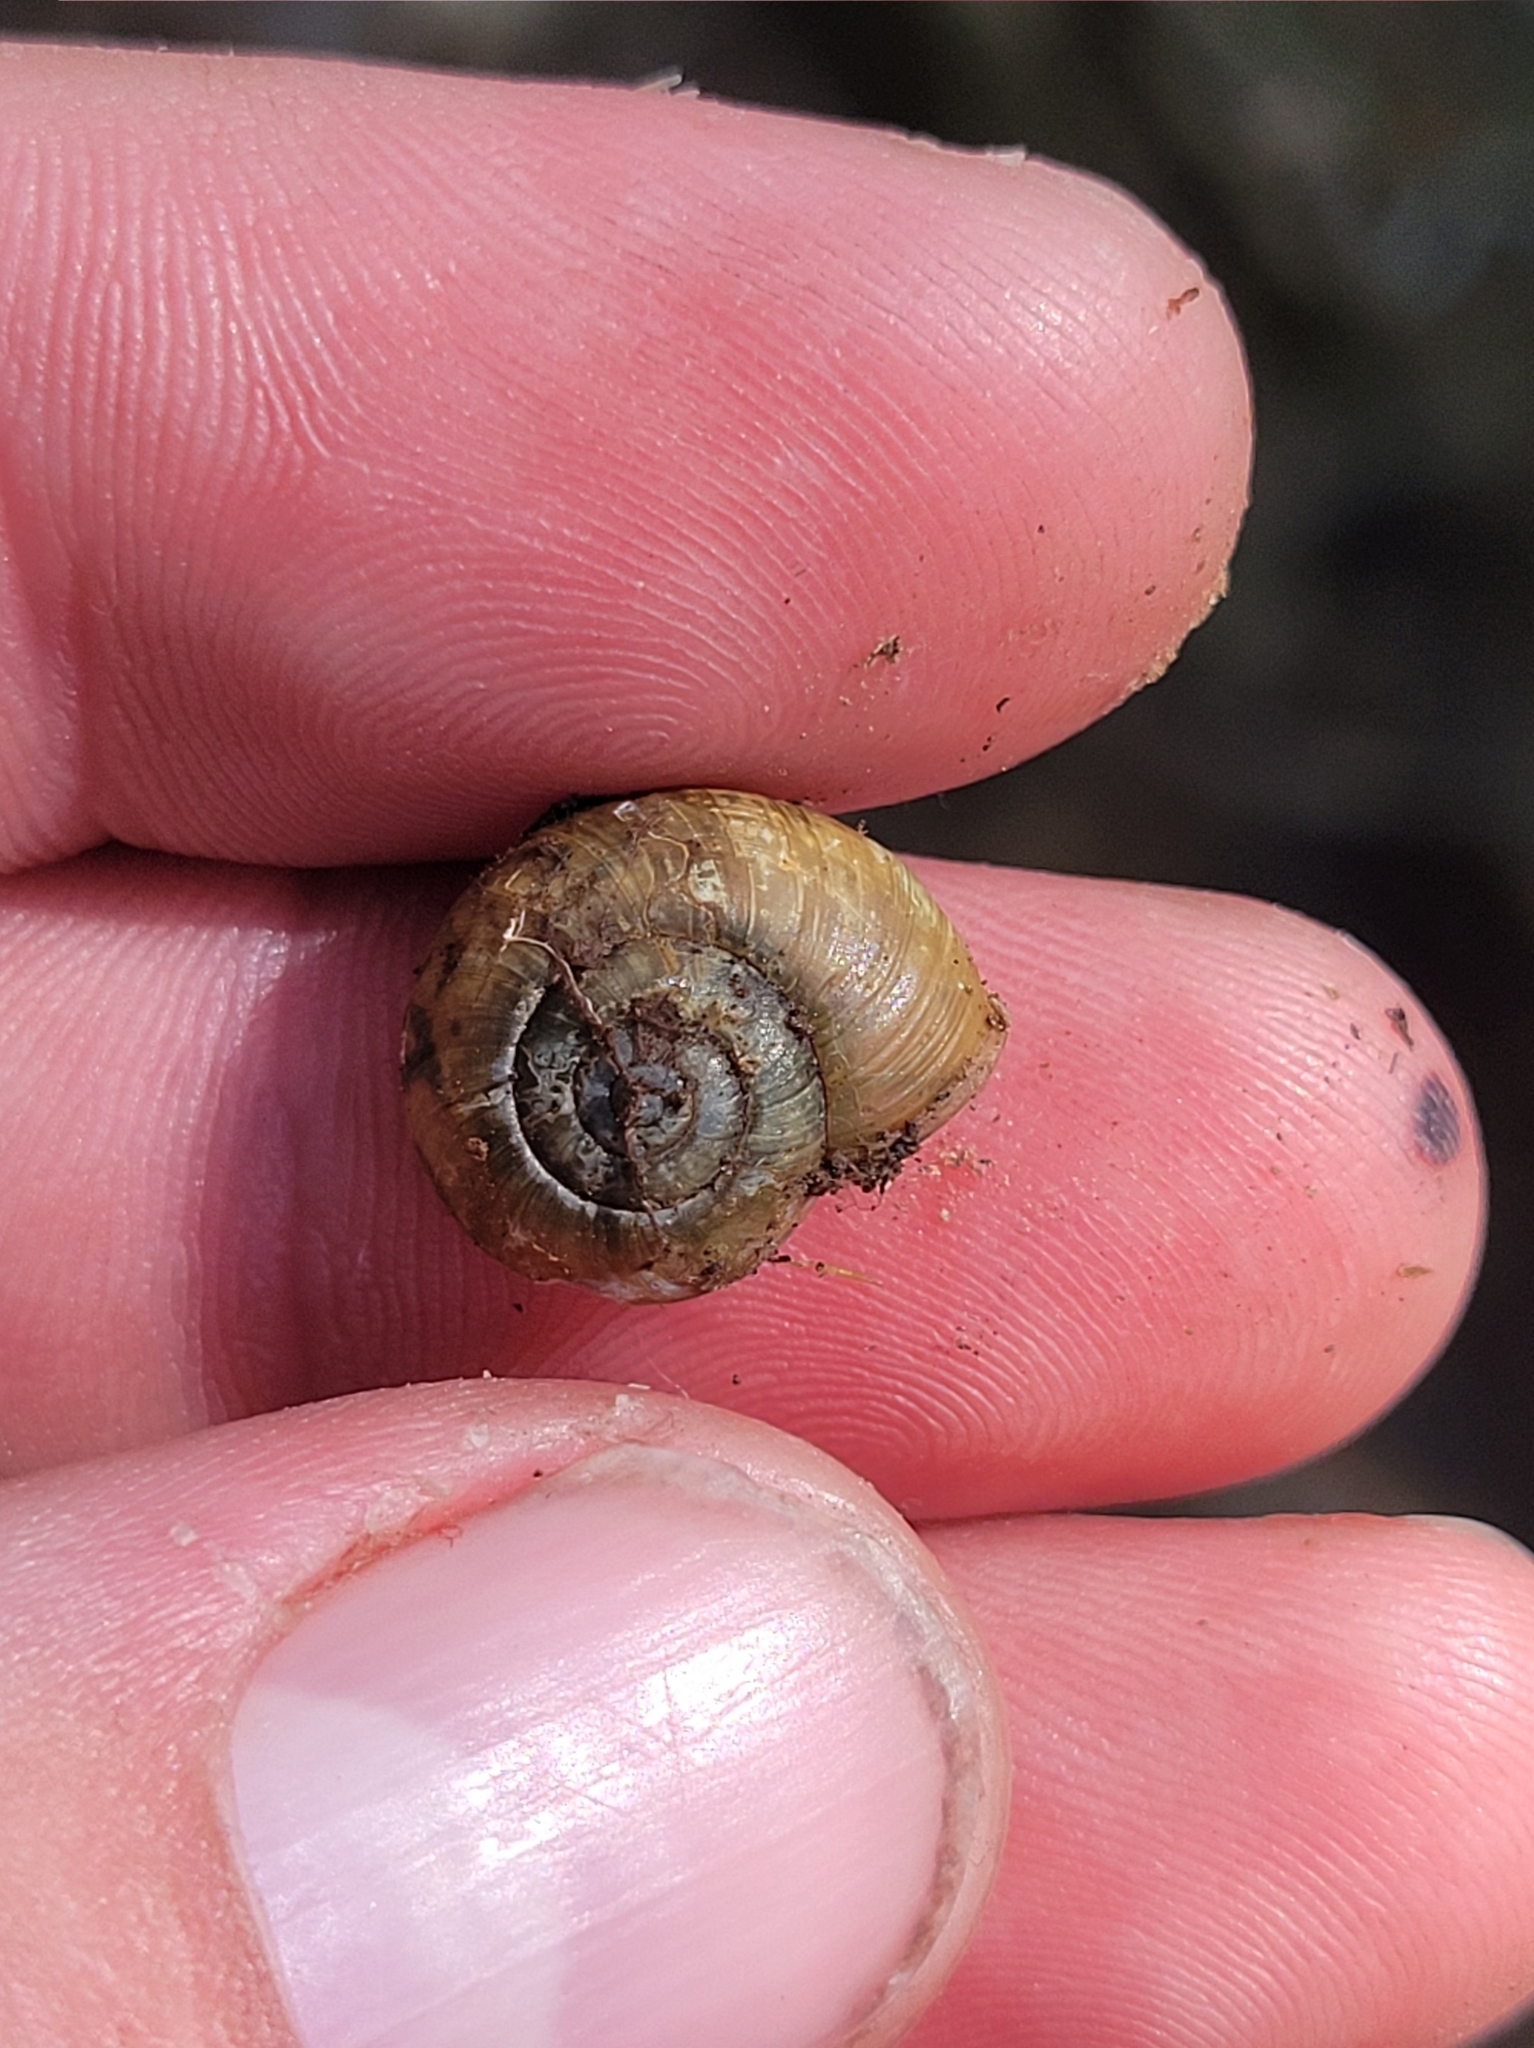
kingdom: Animalia
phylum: Mollusca
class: Gastropoda
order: Stylommatophora
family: Haplotrematidae
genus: Haplotrema
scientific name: Haplotrema concavum
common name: Gray-foot lancetooth
